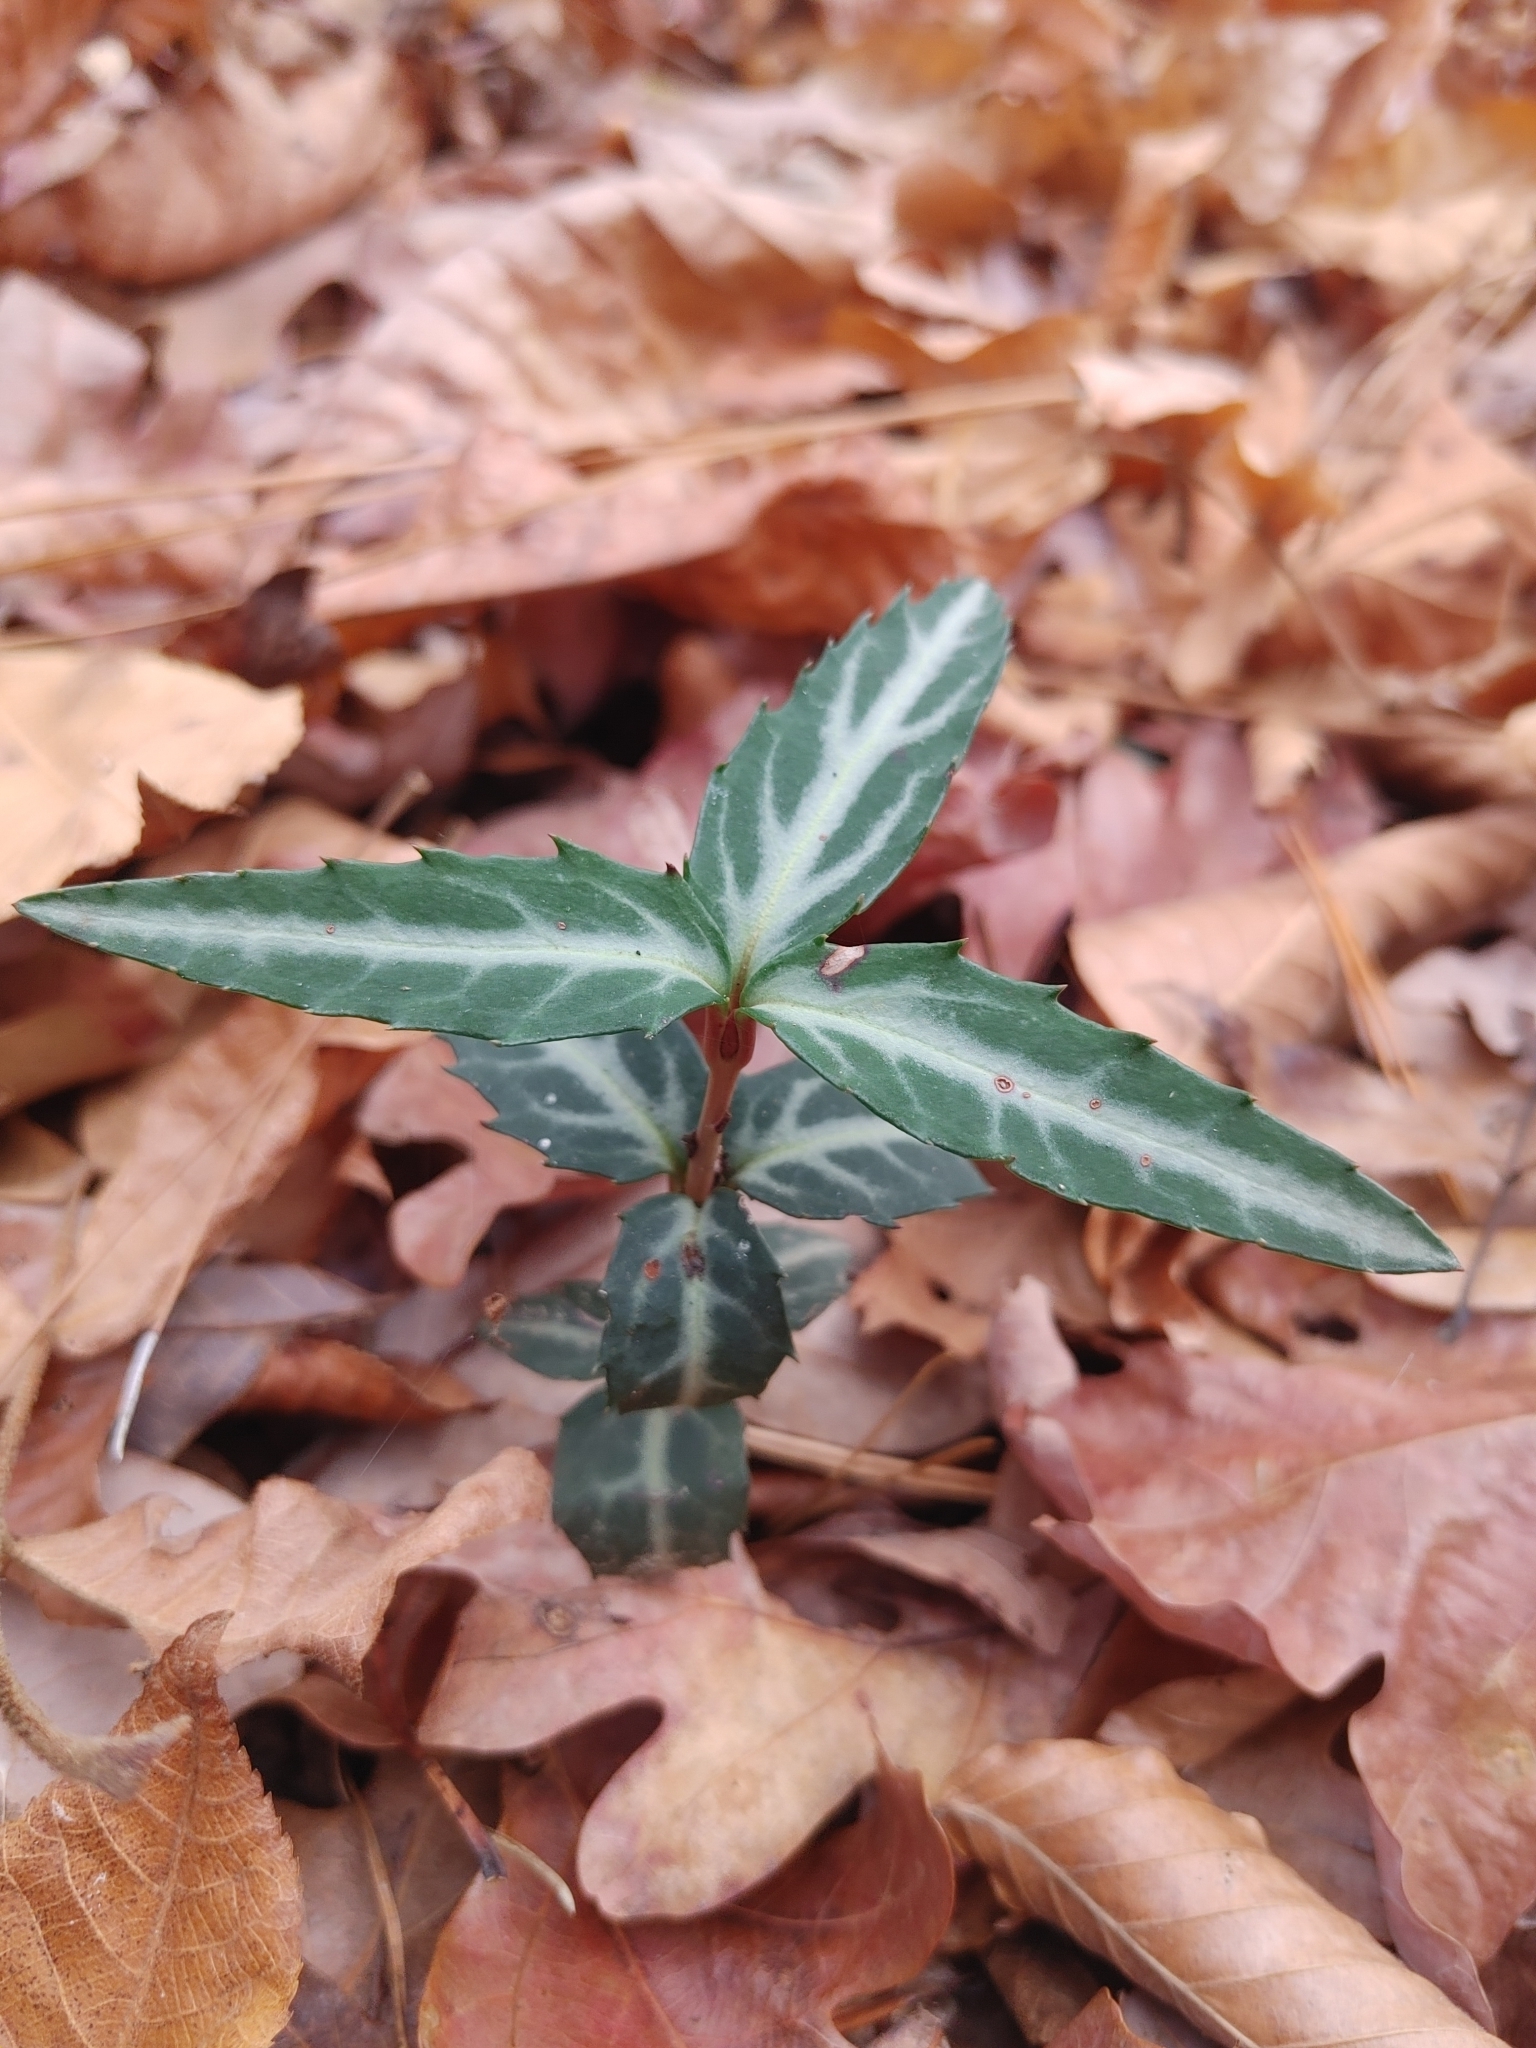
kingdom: Plantae
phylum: Tracheophyta
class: Magnoliopsida
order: Ericales
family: Ericaceae
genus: Chimaphila
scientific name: Chimaphila maculata
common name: Spotted pipsissewa
